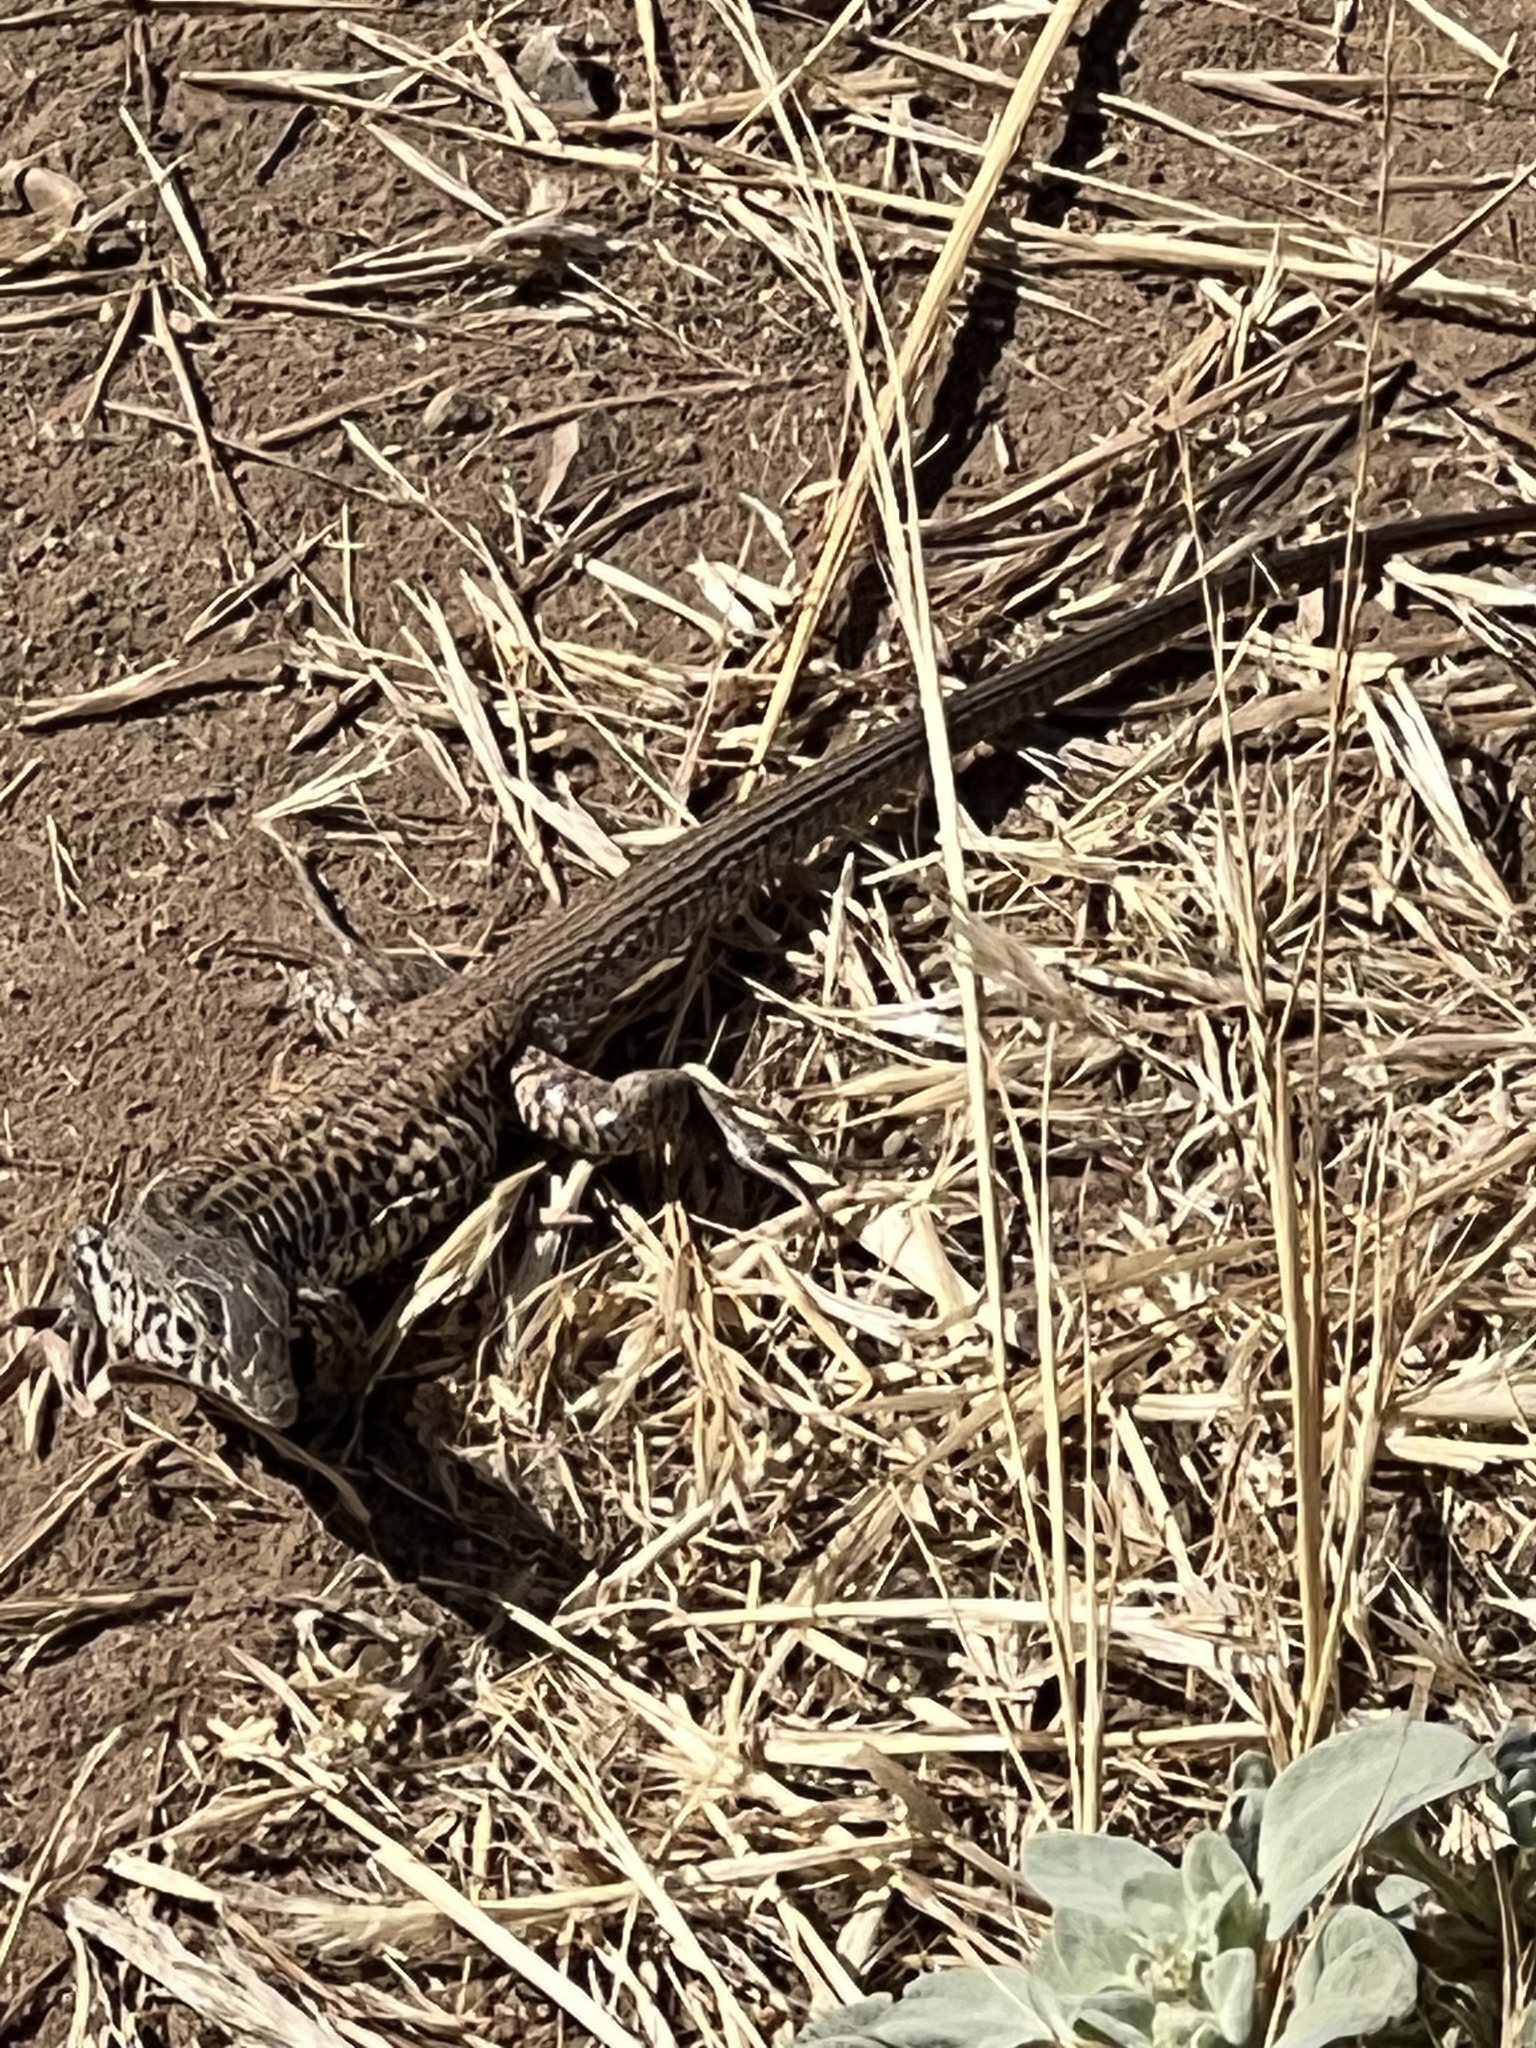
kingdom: Animalia
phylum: Chordata
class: Squamata
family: Teiidae
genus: Aspidoscelis
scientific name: Aspidoscelis tigris
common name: Tiger whiptail
